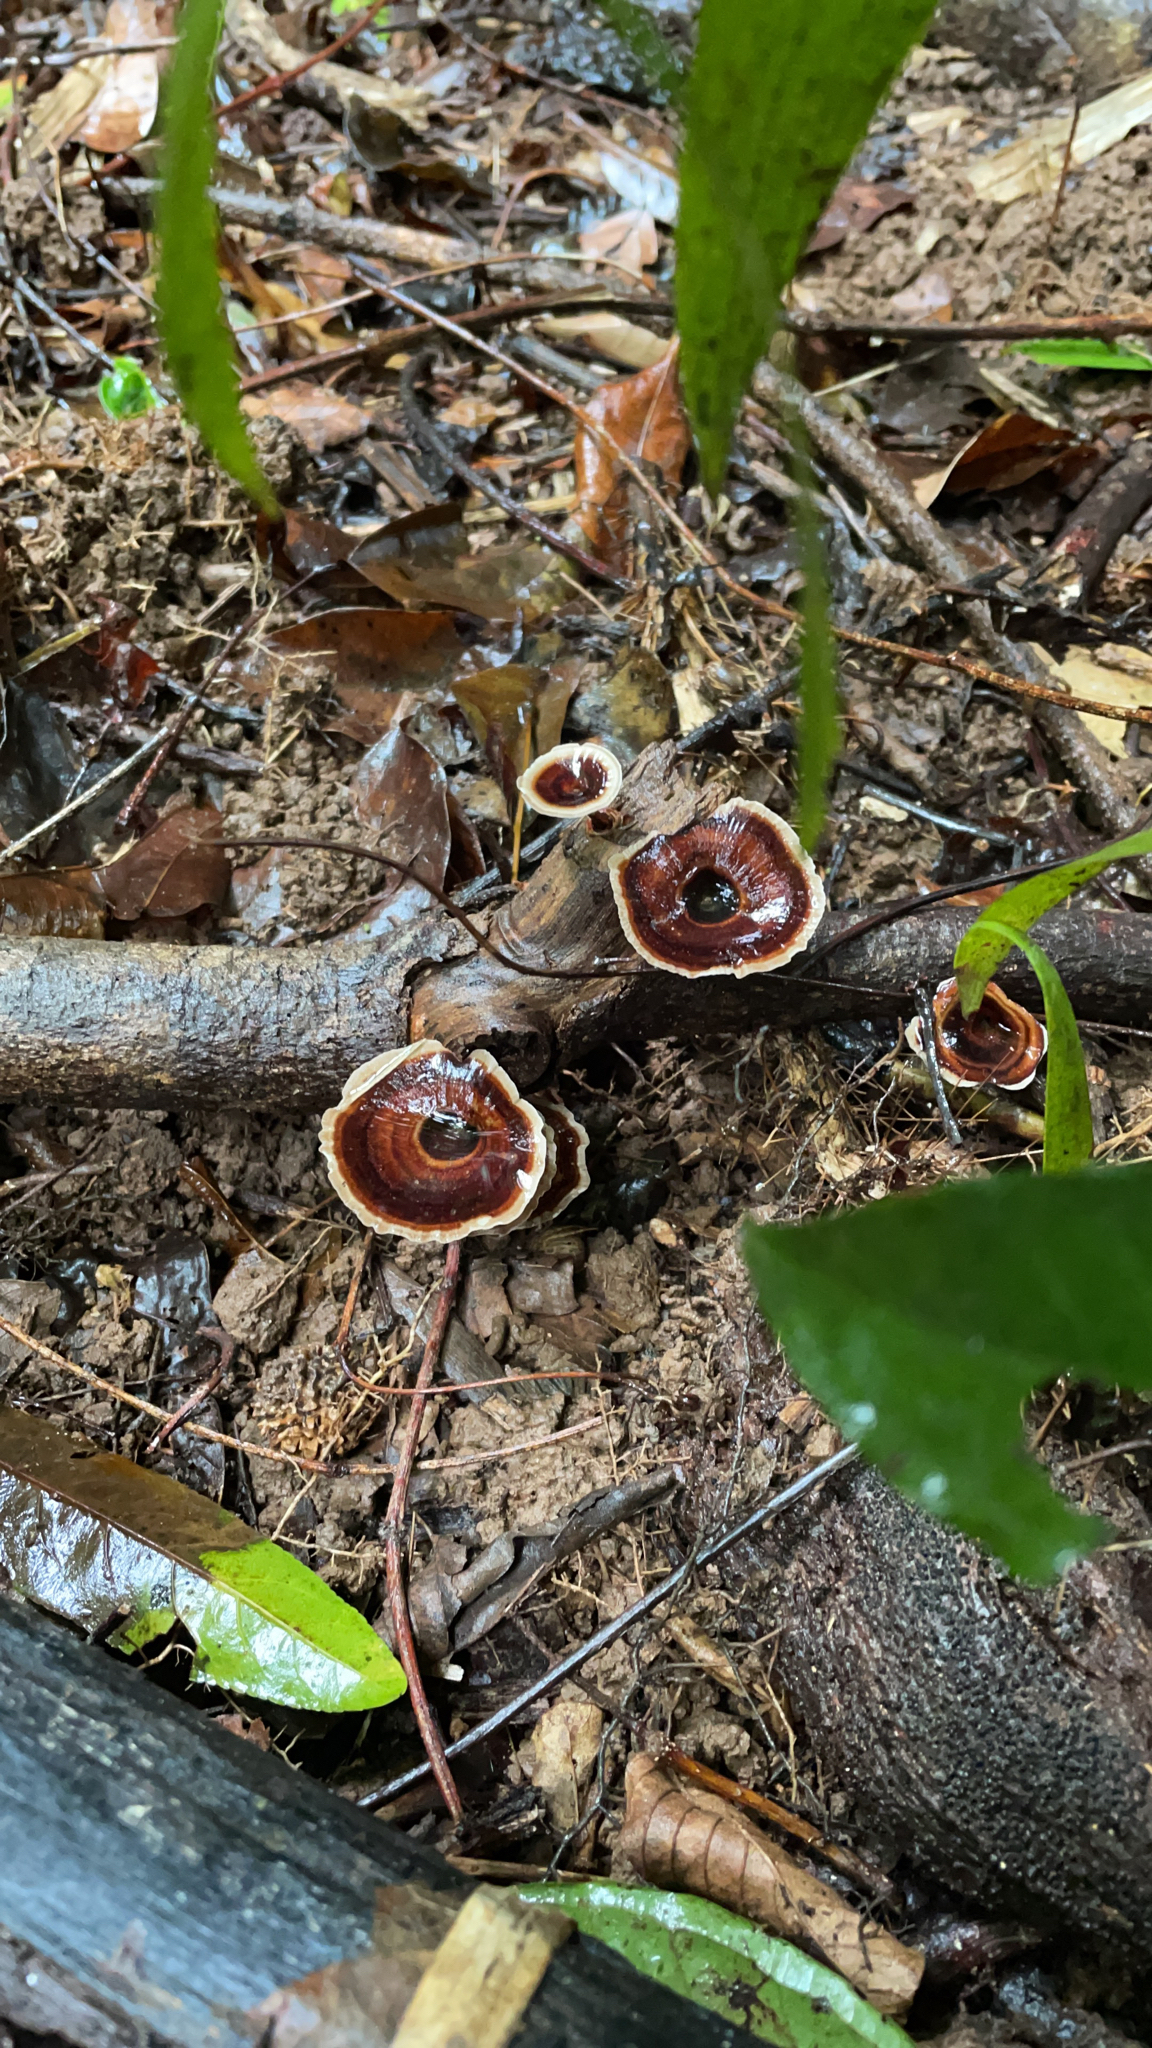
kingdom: Fungi
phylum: Basidiomycota
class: Agaricomycetes
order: Polyporales
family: Polyporaceae
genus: Microporus
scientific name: Microporus xanthopus
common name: Yellow-stemmed micropore
